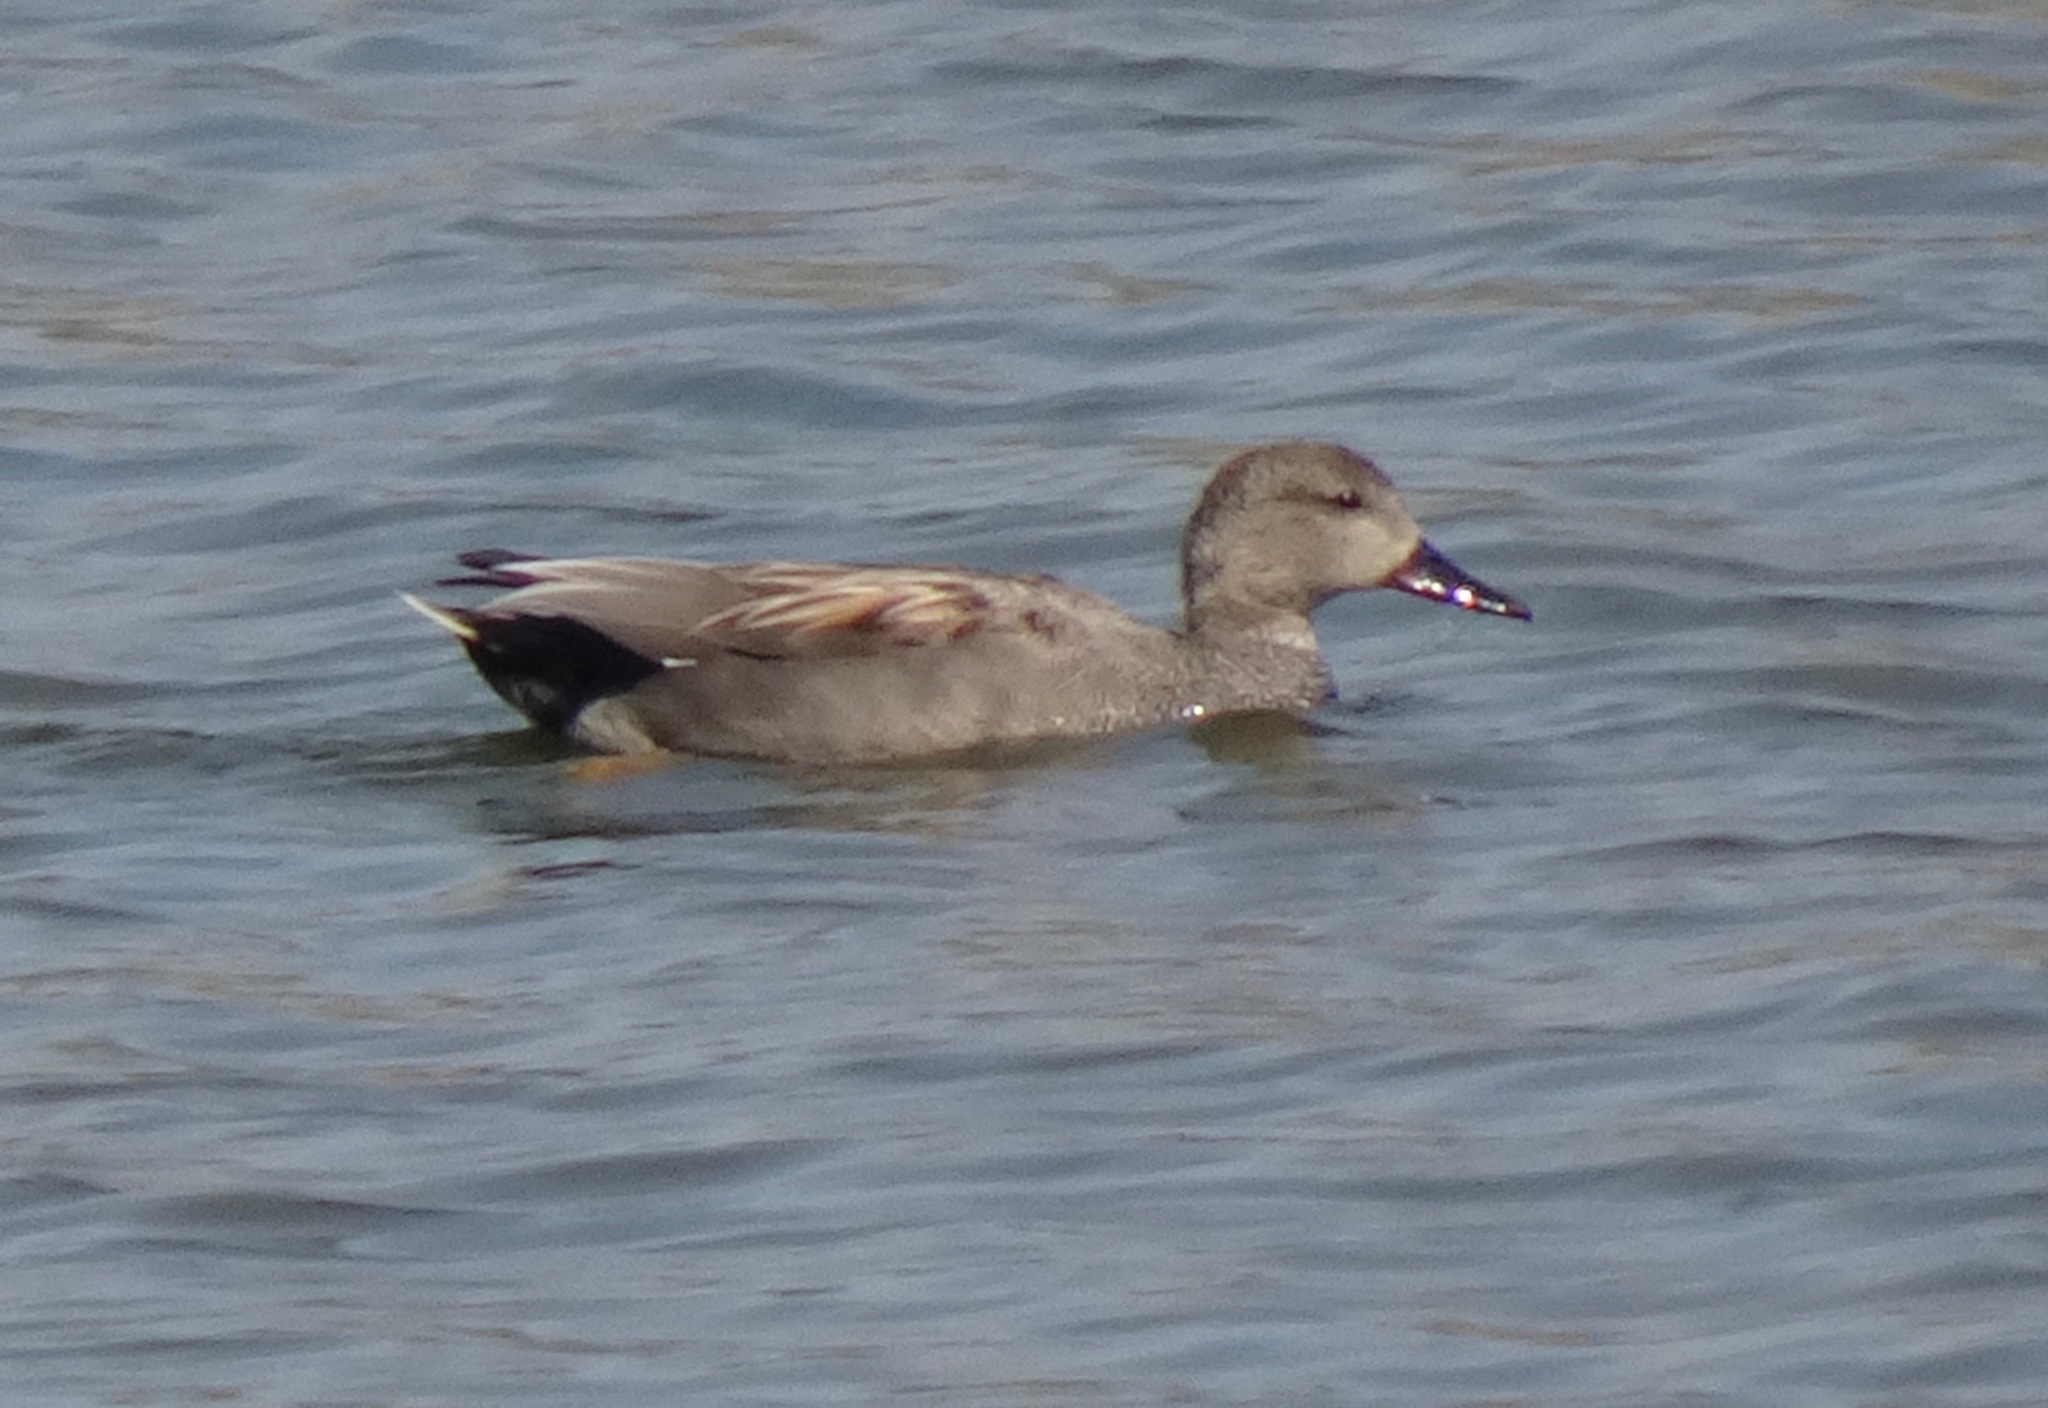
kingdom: Animalia
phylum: Chordata
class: Aves
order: Anseriformes
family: Anatidae
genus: Mareca
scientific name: Mareca strepera
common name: Gadwall
